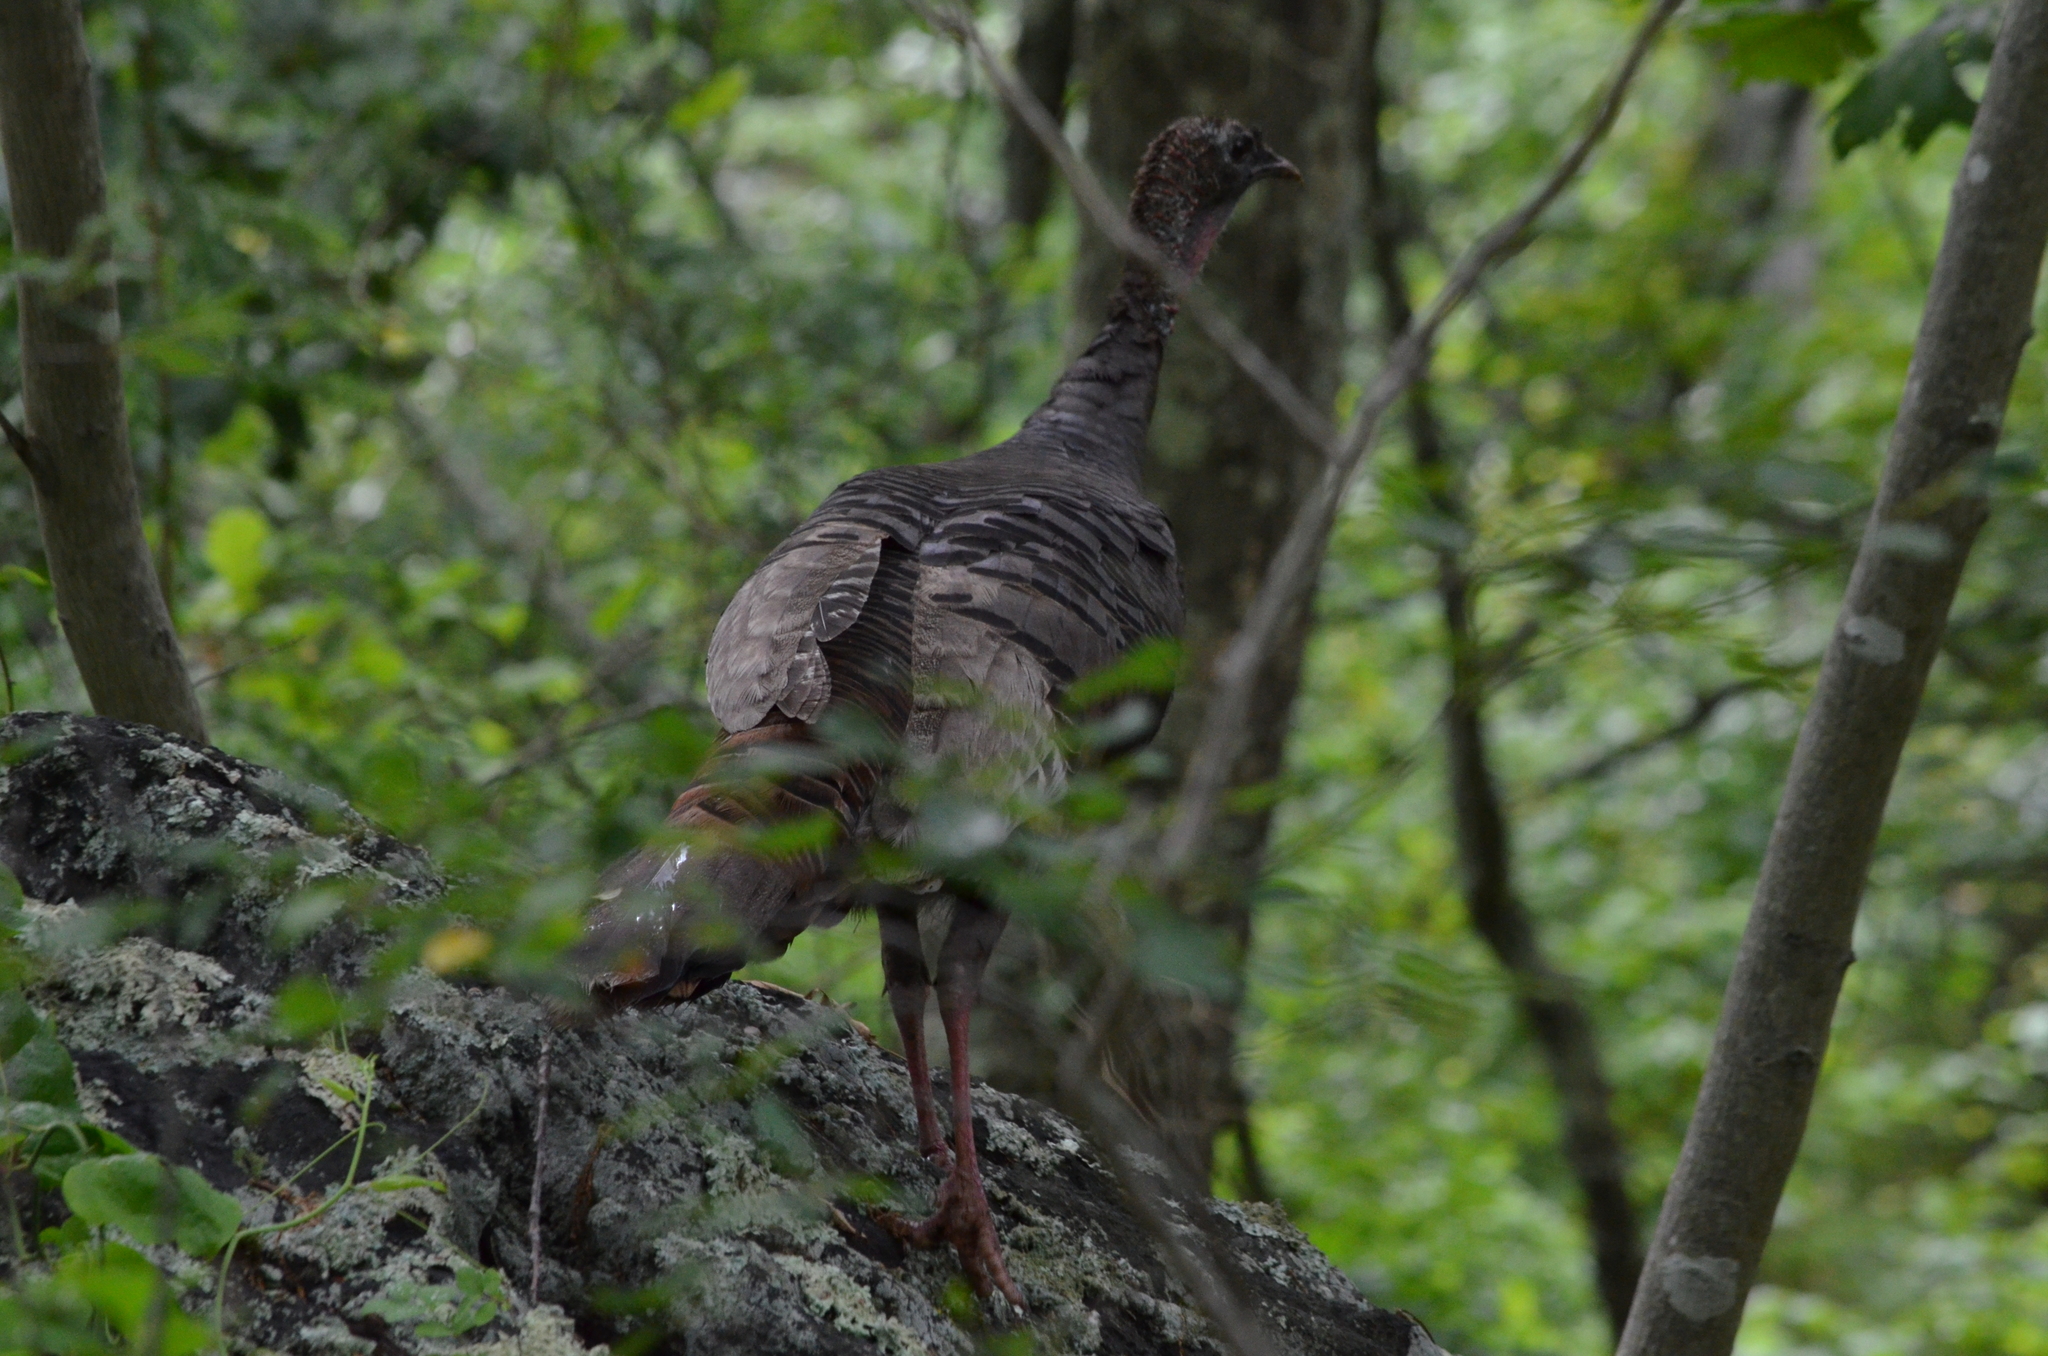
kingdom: Animalia
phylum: Chordata
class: Aves
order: Galliformes
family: Phasianidae
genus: Meleagris
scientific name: Meleagris gallopavo
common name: Wild turkey
